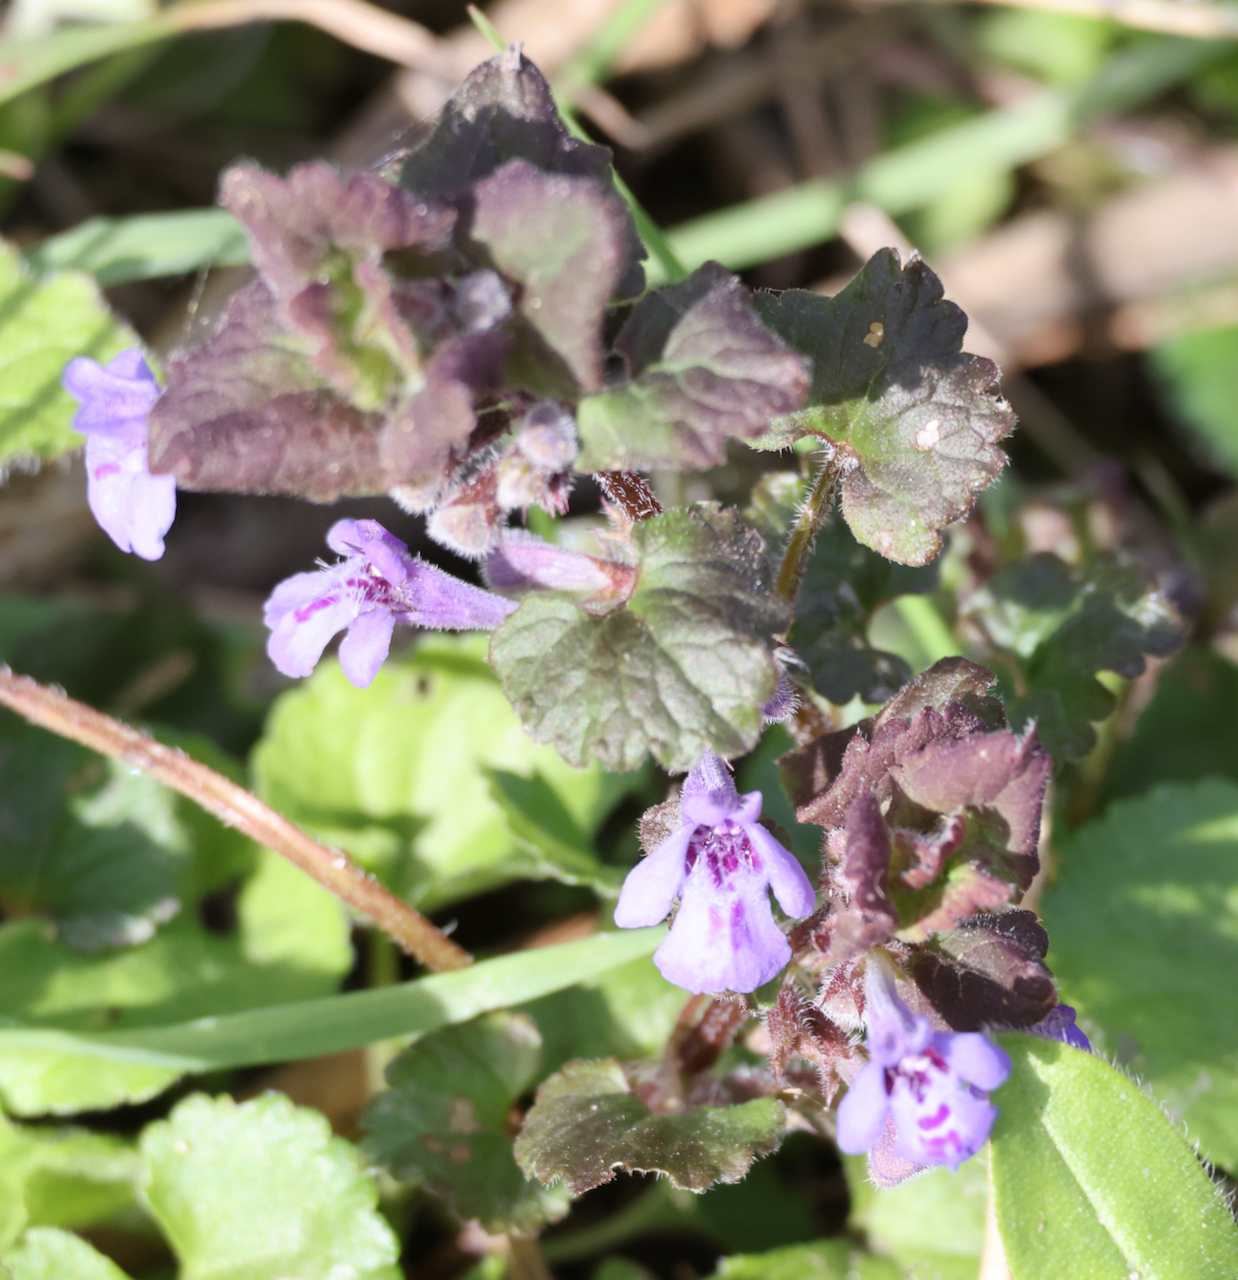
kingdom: Plantae
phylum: Tracheophyta
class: Magnoliopsida
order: Lamiales
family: Lamiaceae
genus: Glechoma
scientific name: Glechoma hederacea
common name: Ground ivy
